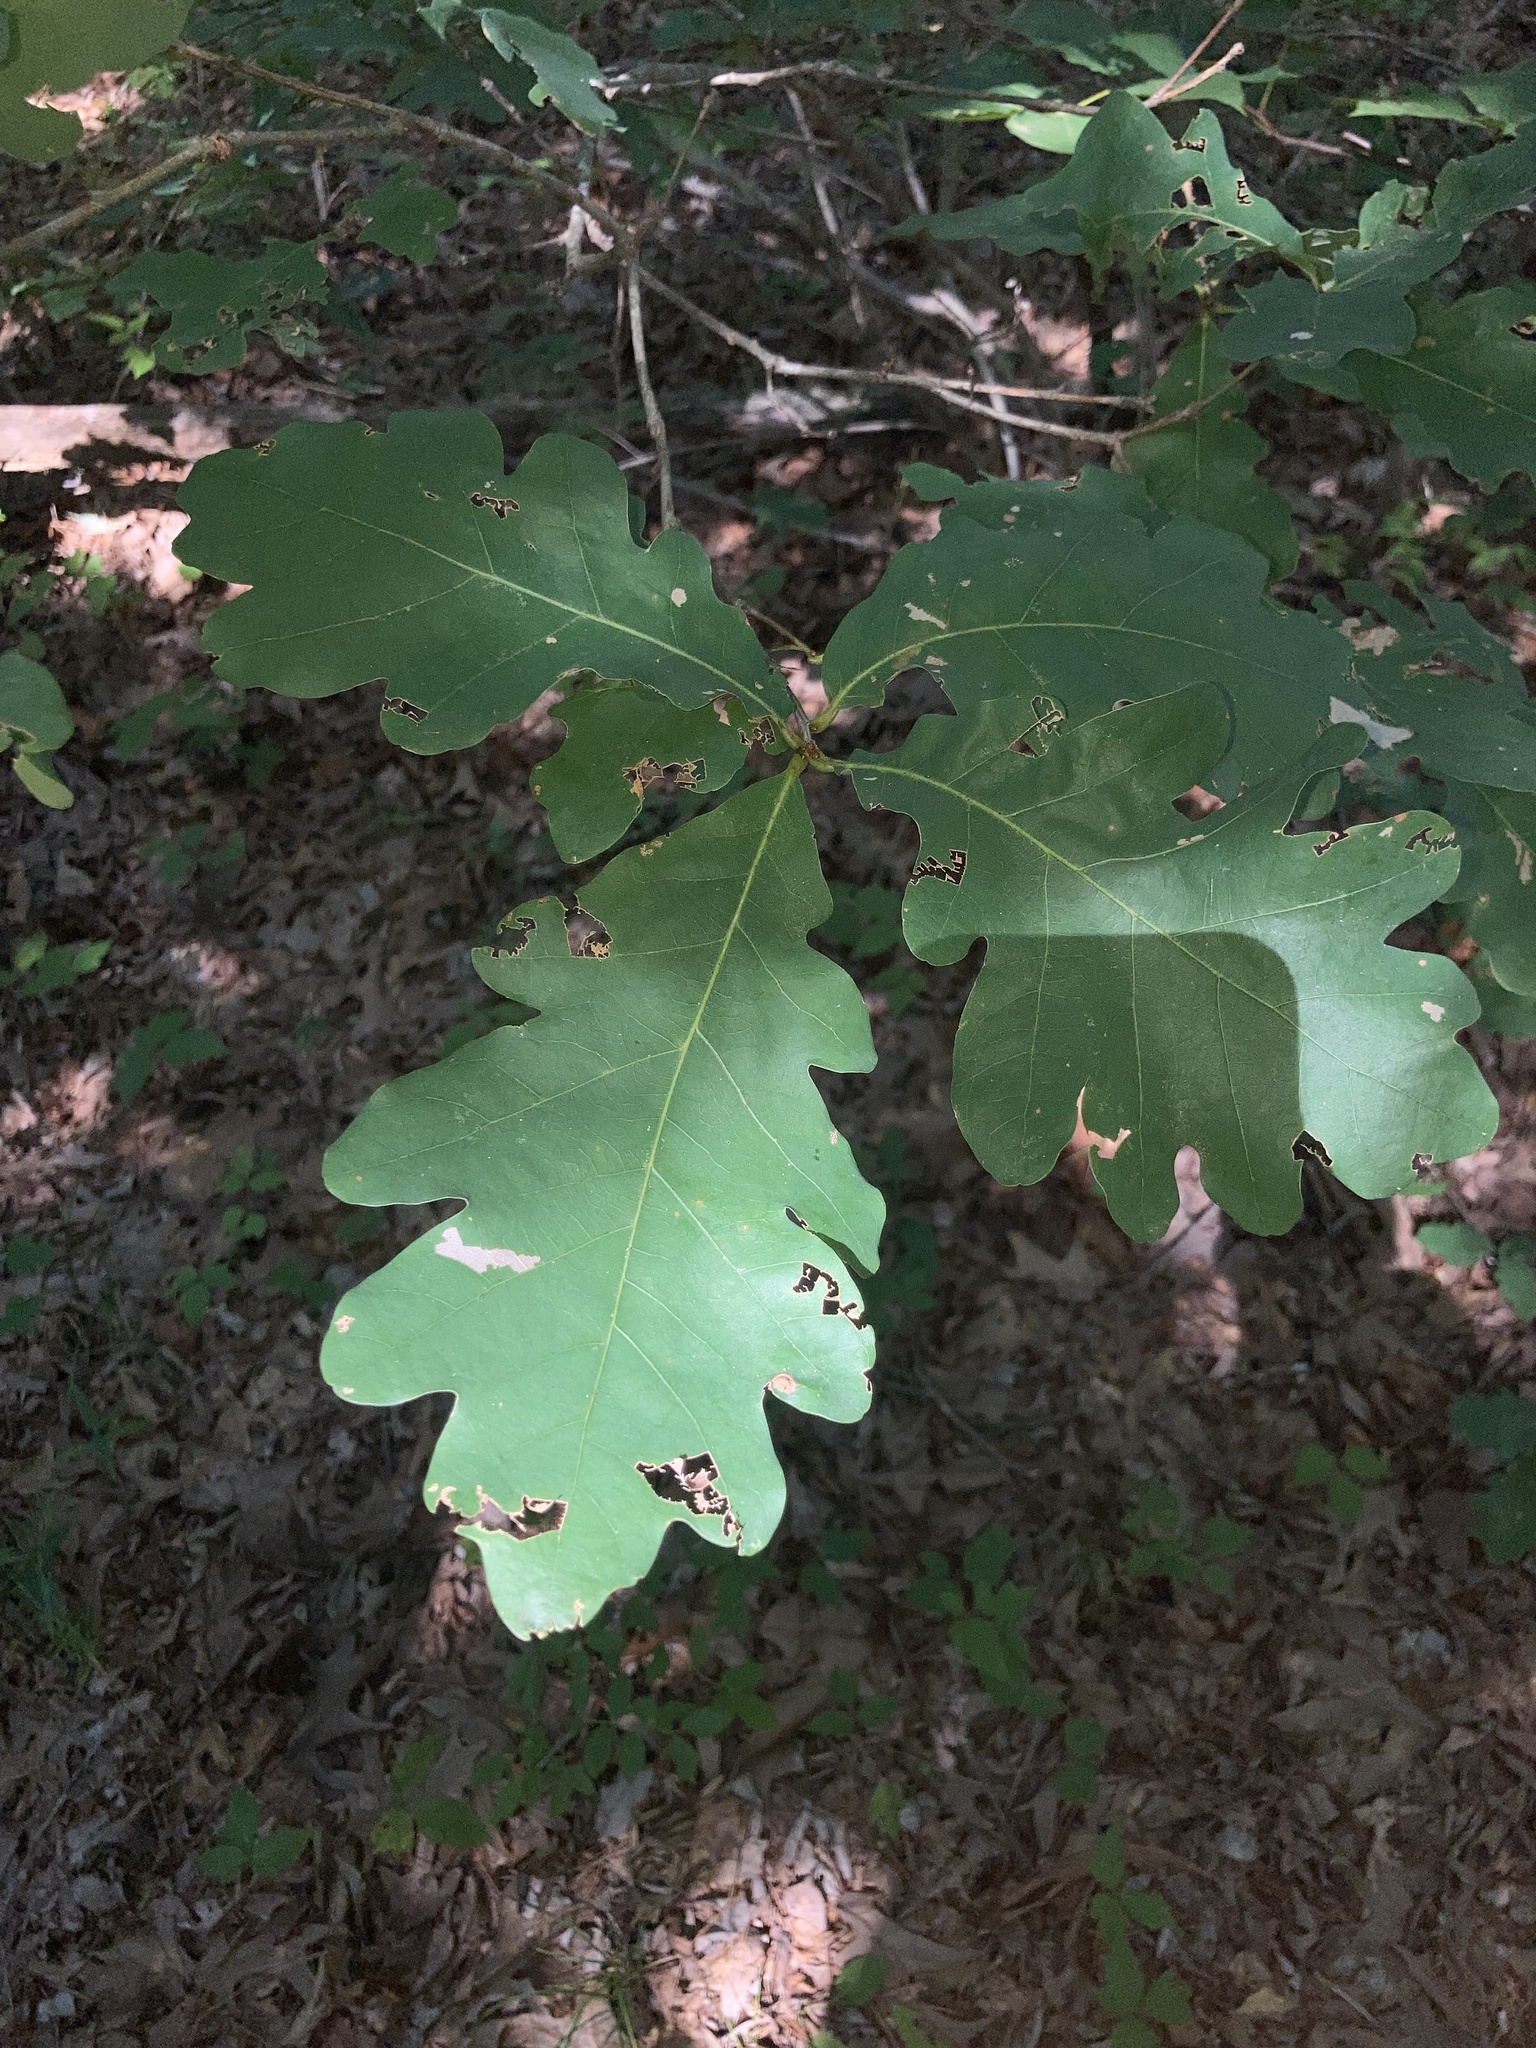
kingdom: Plantae
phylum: Tracheophyta
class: Magnoliopsida
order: Fagales
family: Fagaceae
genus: Quercus
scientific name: Quercus alba
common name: White oak
